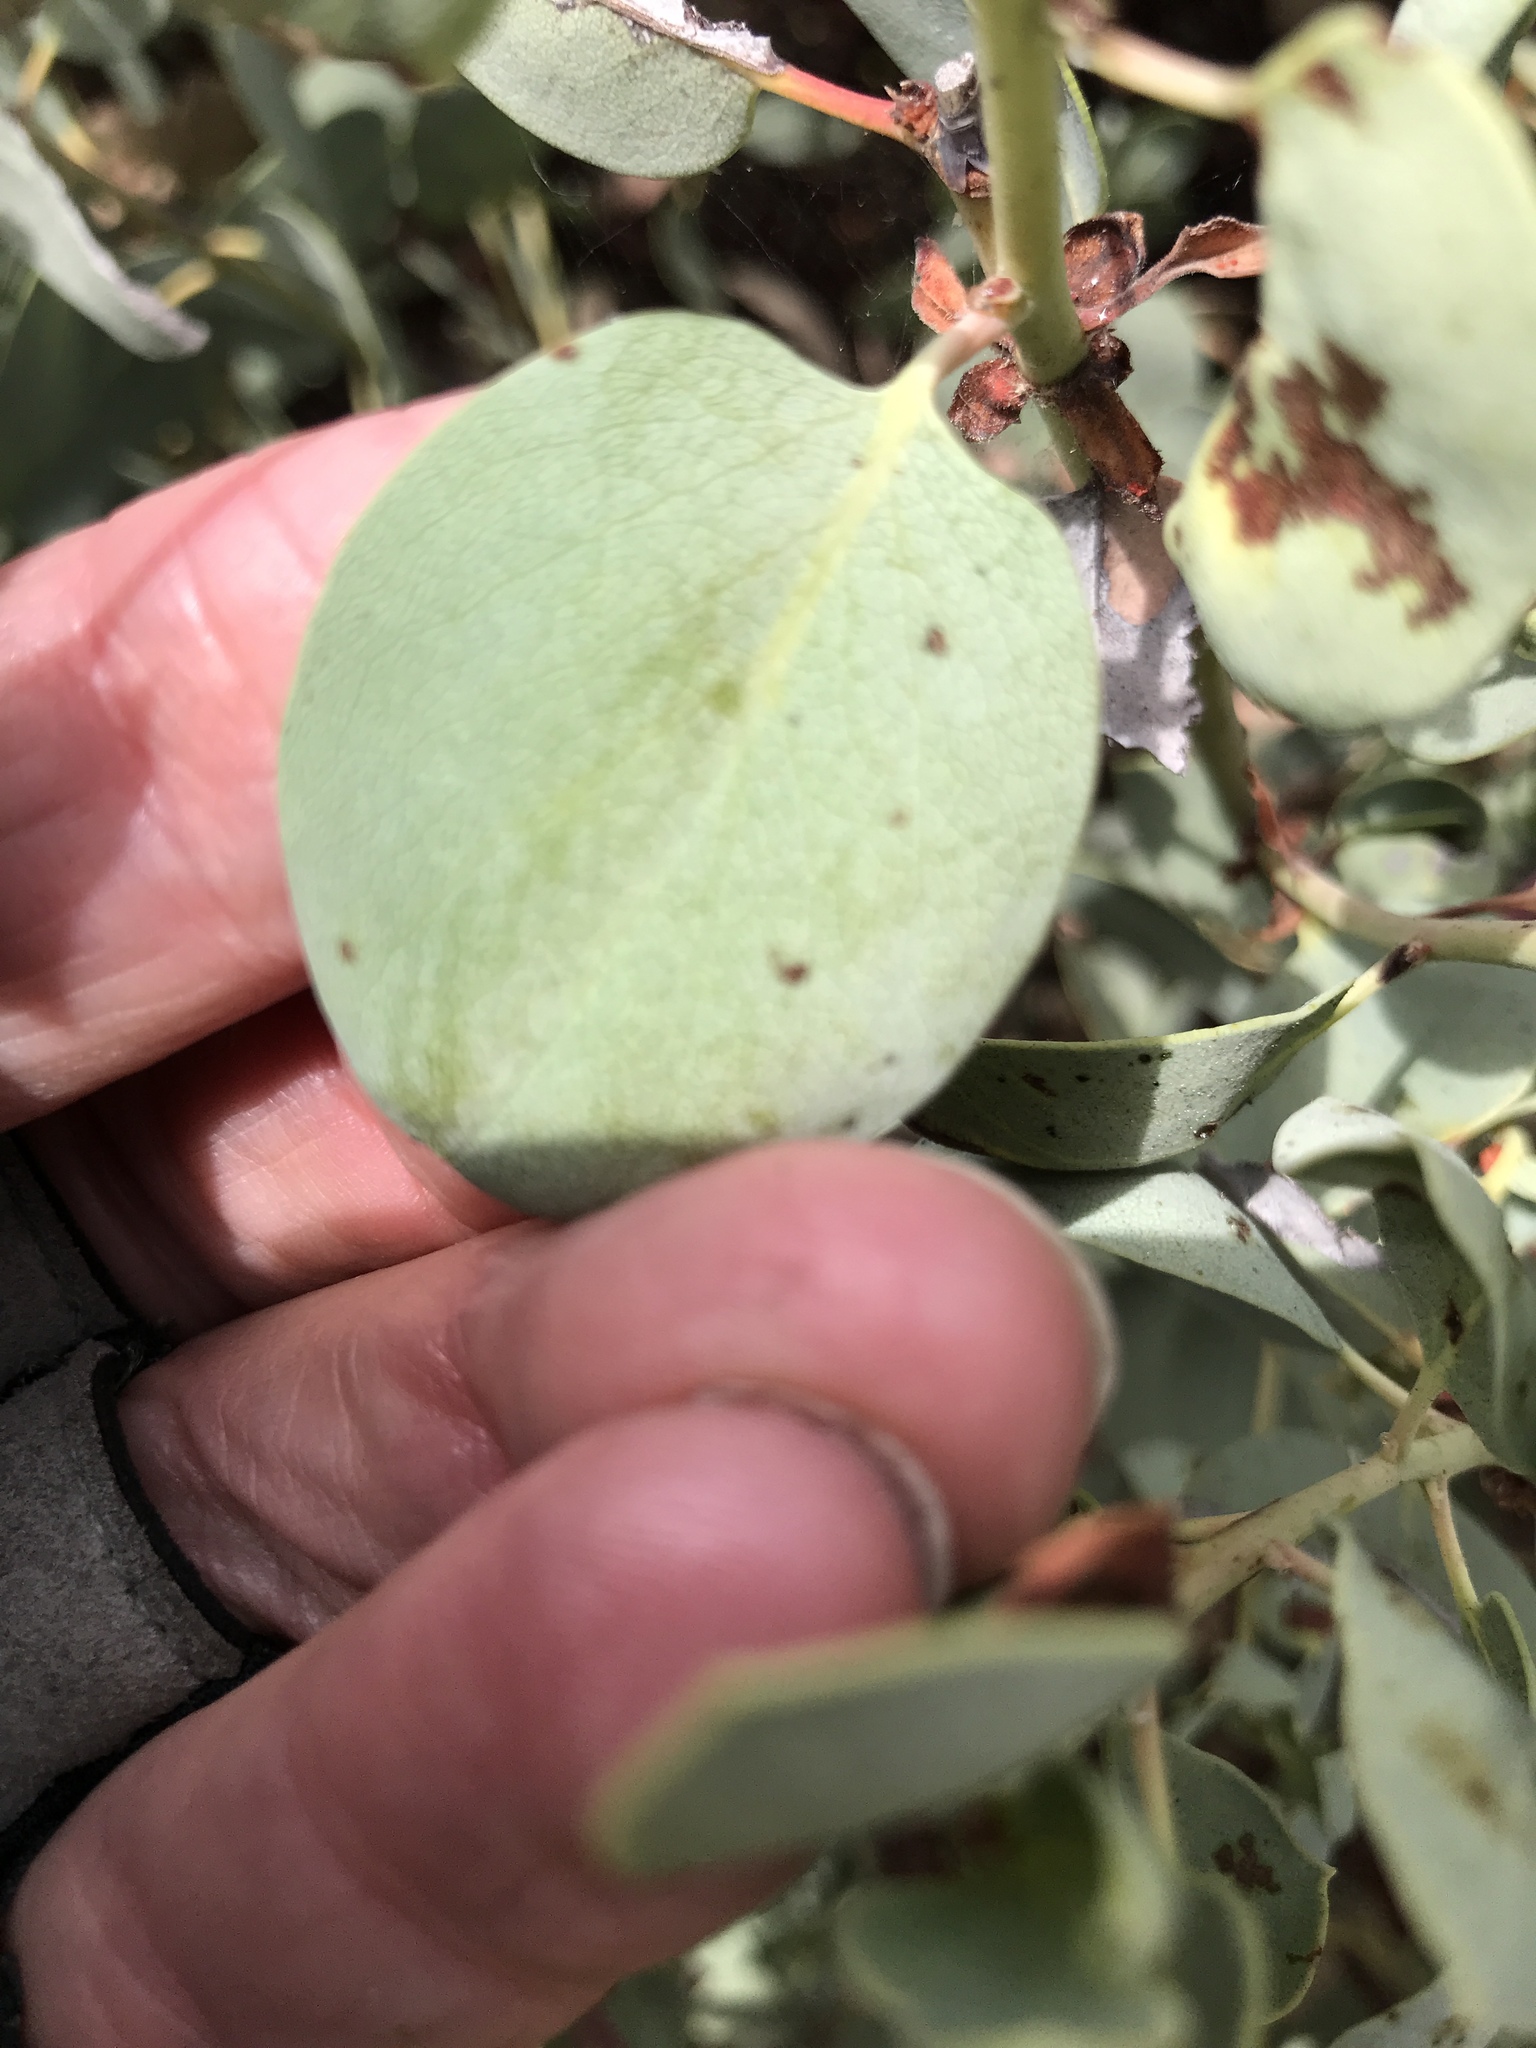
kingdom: Plantae
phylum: Tracheophyta
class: Magnoliopsida
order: Ericales
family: Ericaceae
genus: Arctostaphylos
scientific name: Arctostaphylos glauca
